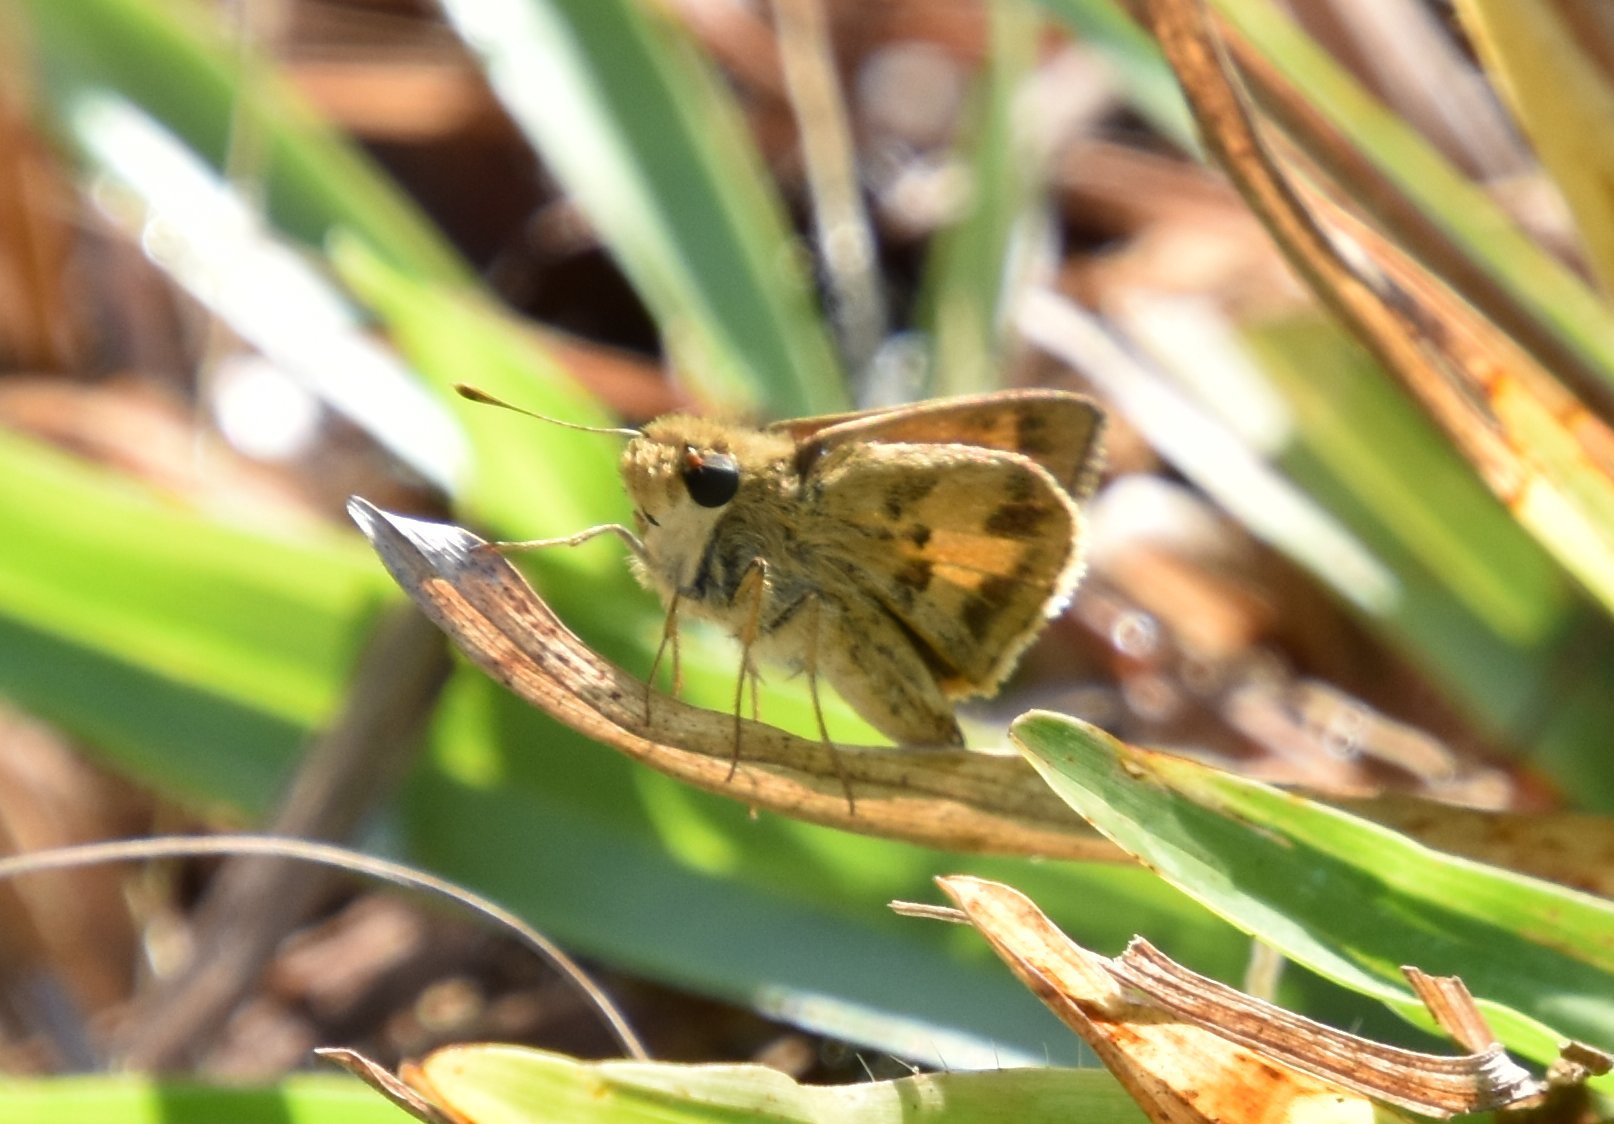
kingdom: Animalia
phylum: Arthropoda
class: Insecta
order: Lepidoptera
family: Hesperiidae
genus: Polites
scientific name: Polites vibex
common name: Whirlabout
